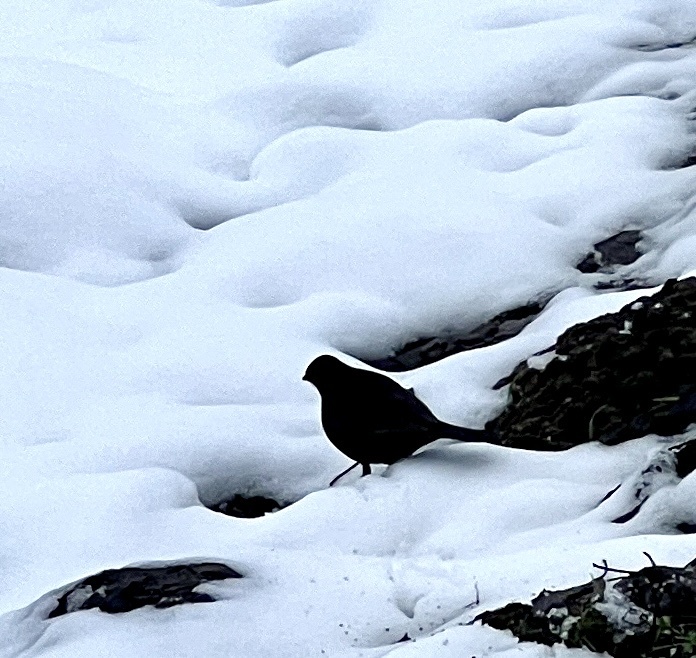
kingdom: Animalia
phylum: Chordata
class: Aves
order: Passeriformes
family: Turdidae
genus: Turdus
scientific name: Turdus merula
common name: Common blackbird
